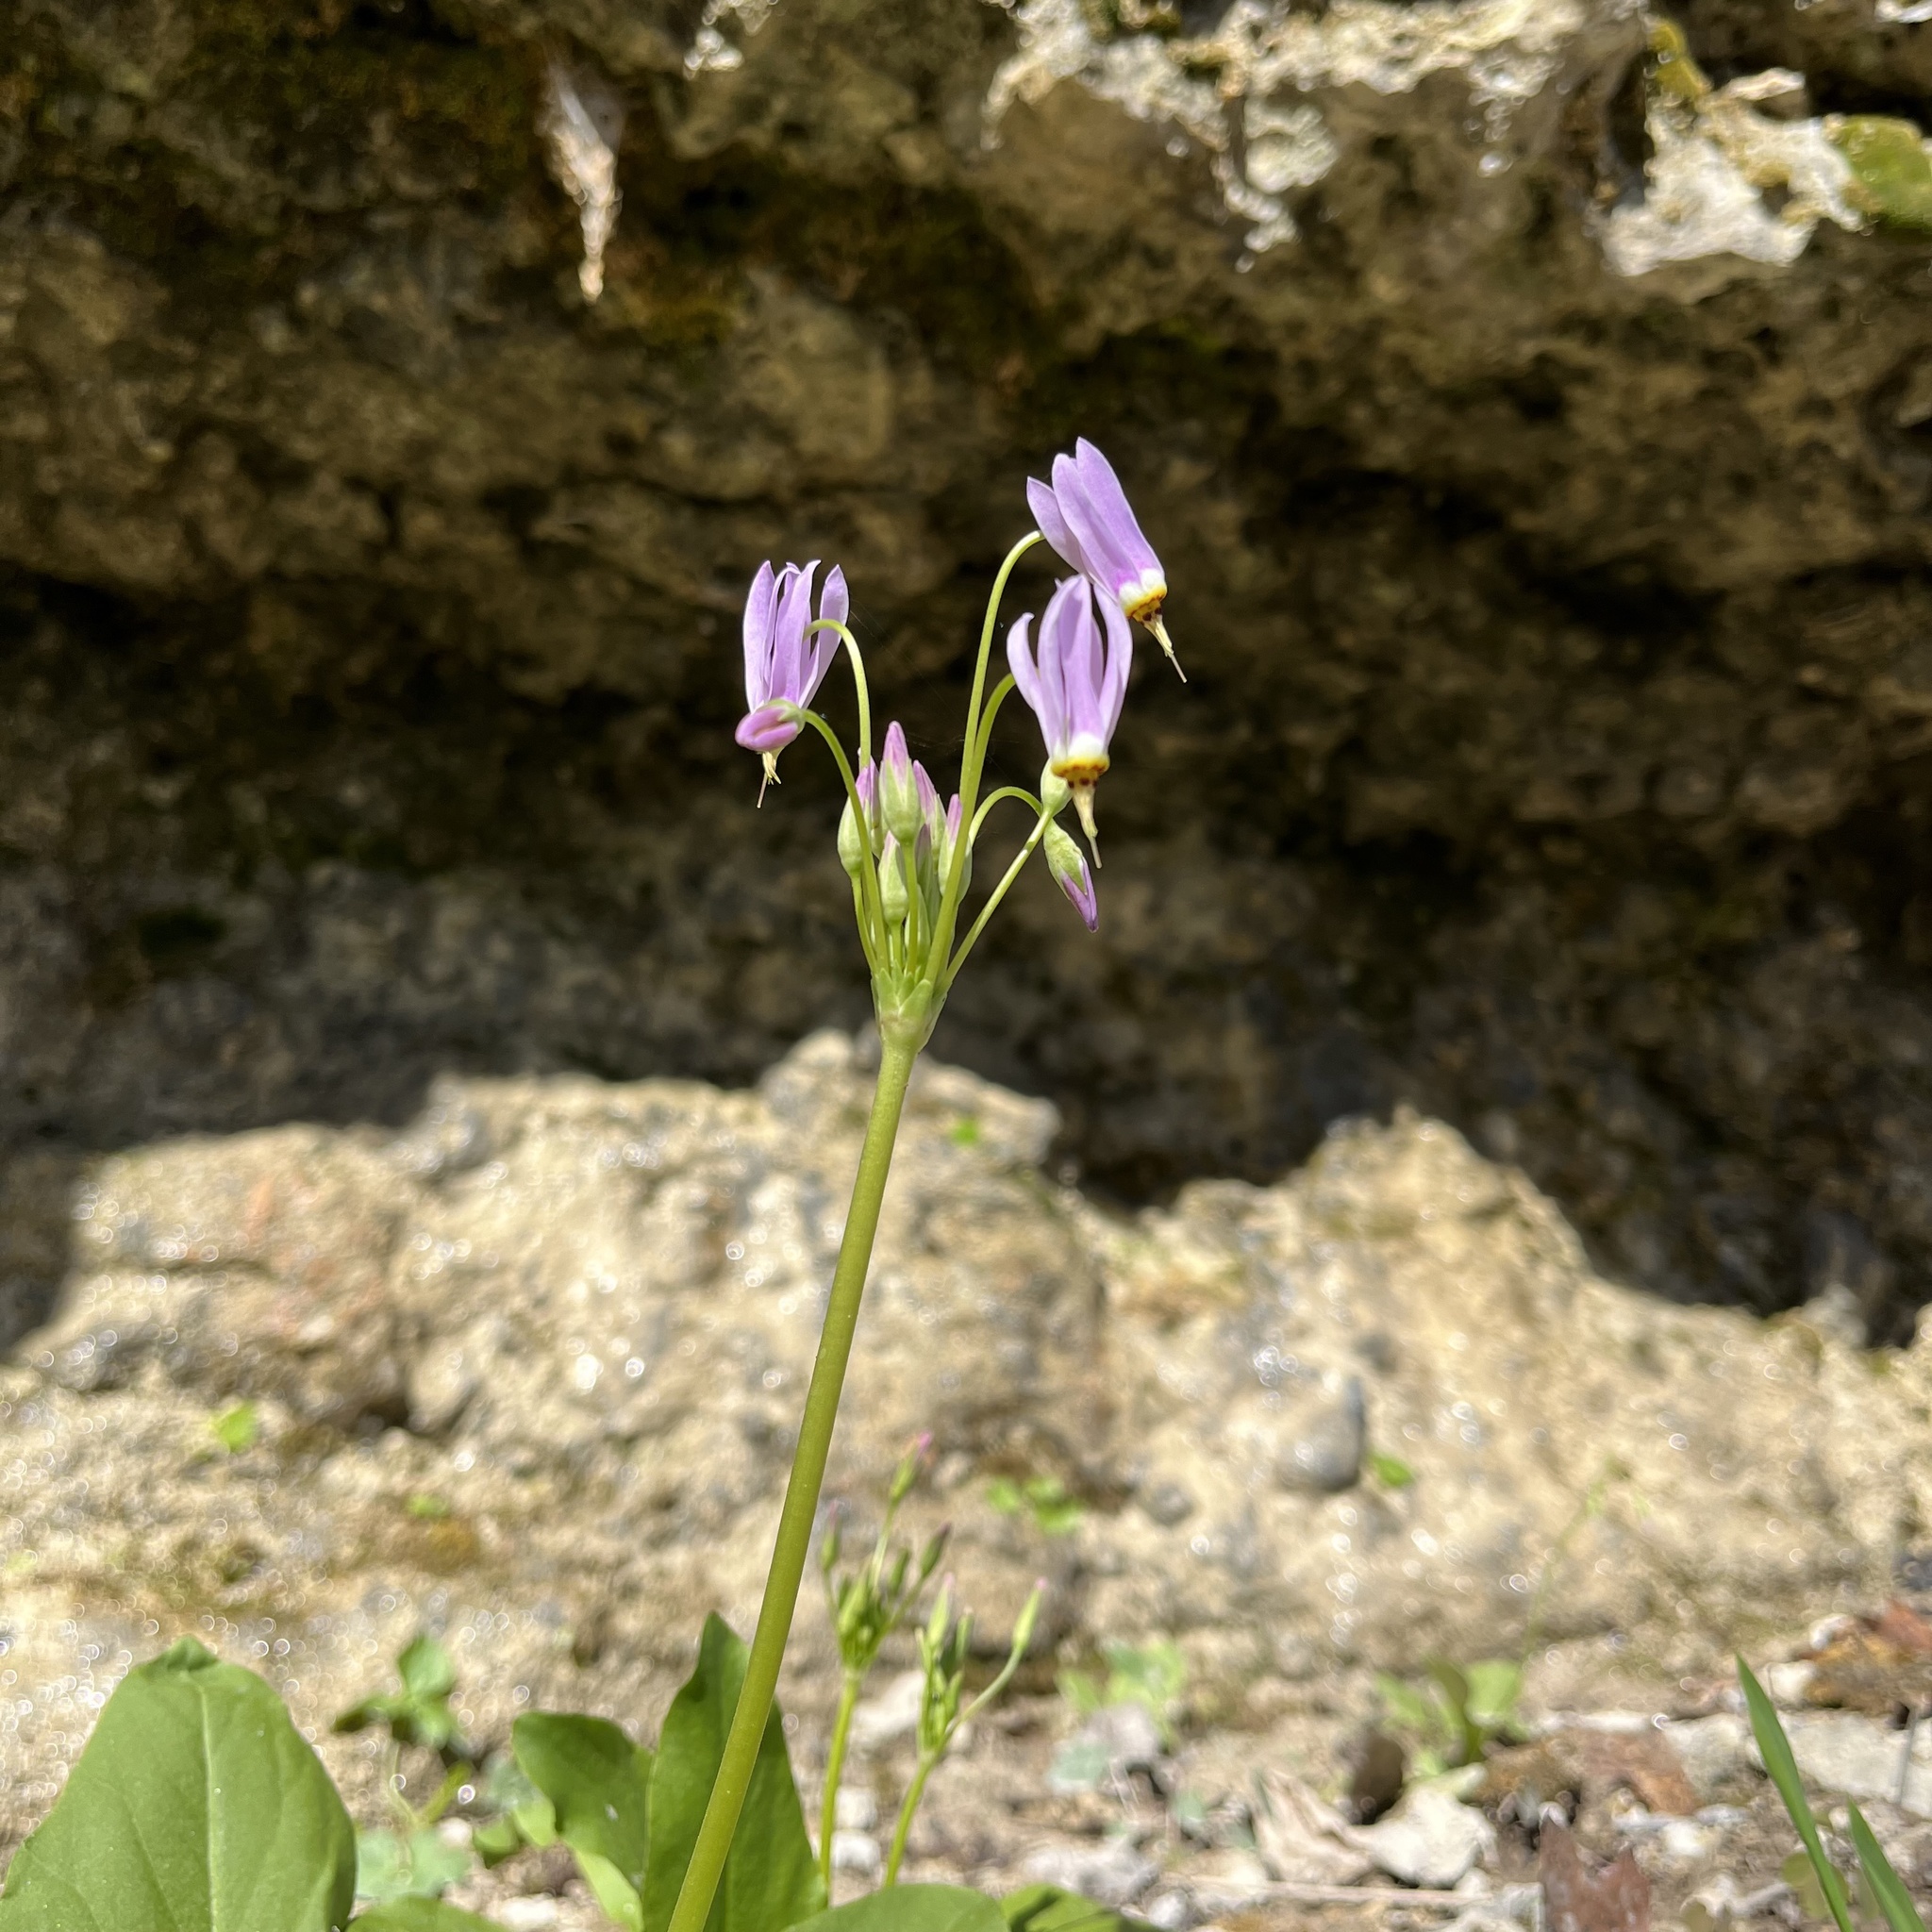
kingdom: Plantae
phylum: Tracheophyta
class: Magnoliopsida
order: Ericales
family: Primulaceae
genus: Dodecatheon
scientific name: Dodecatheon meadia
